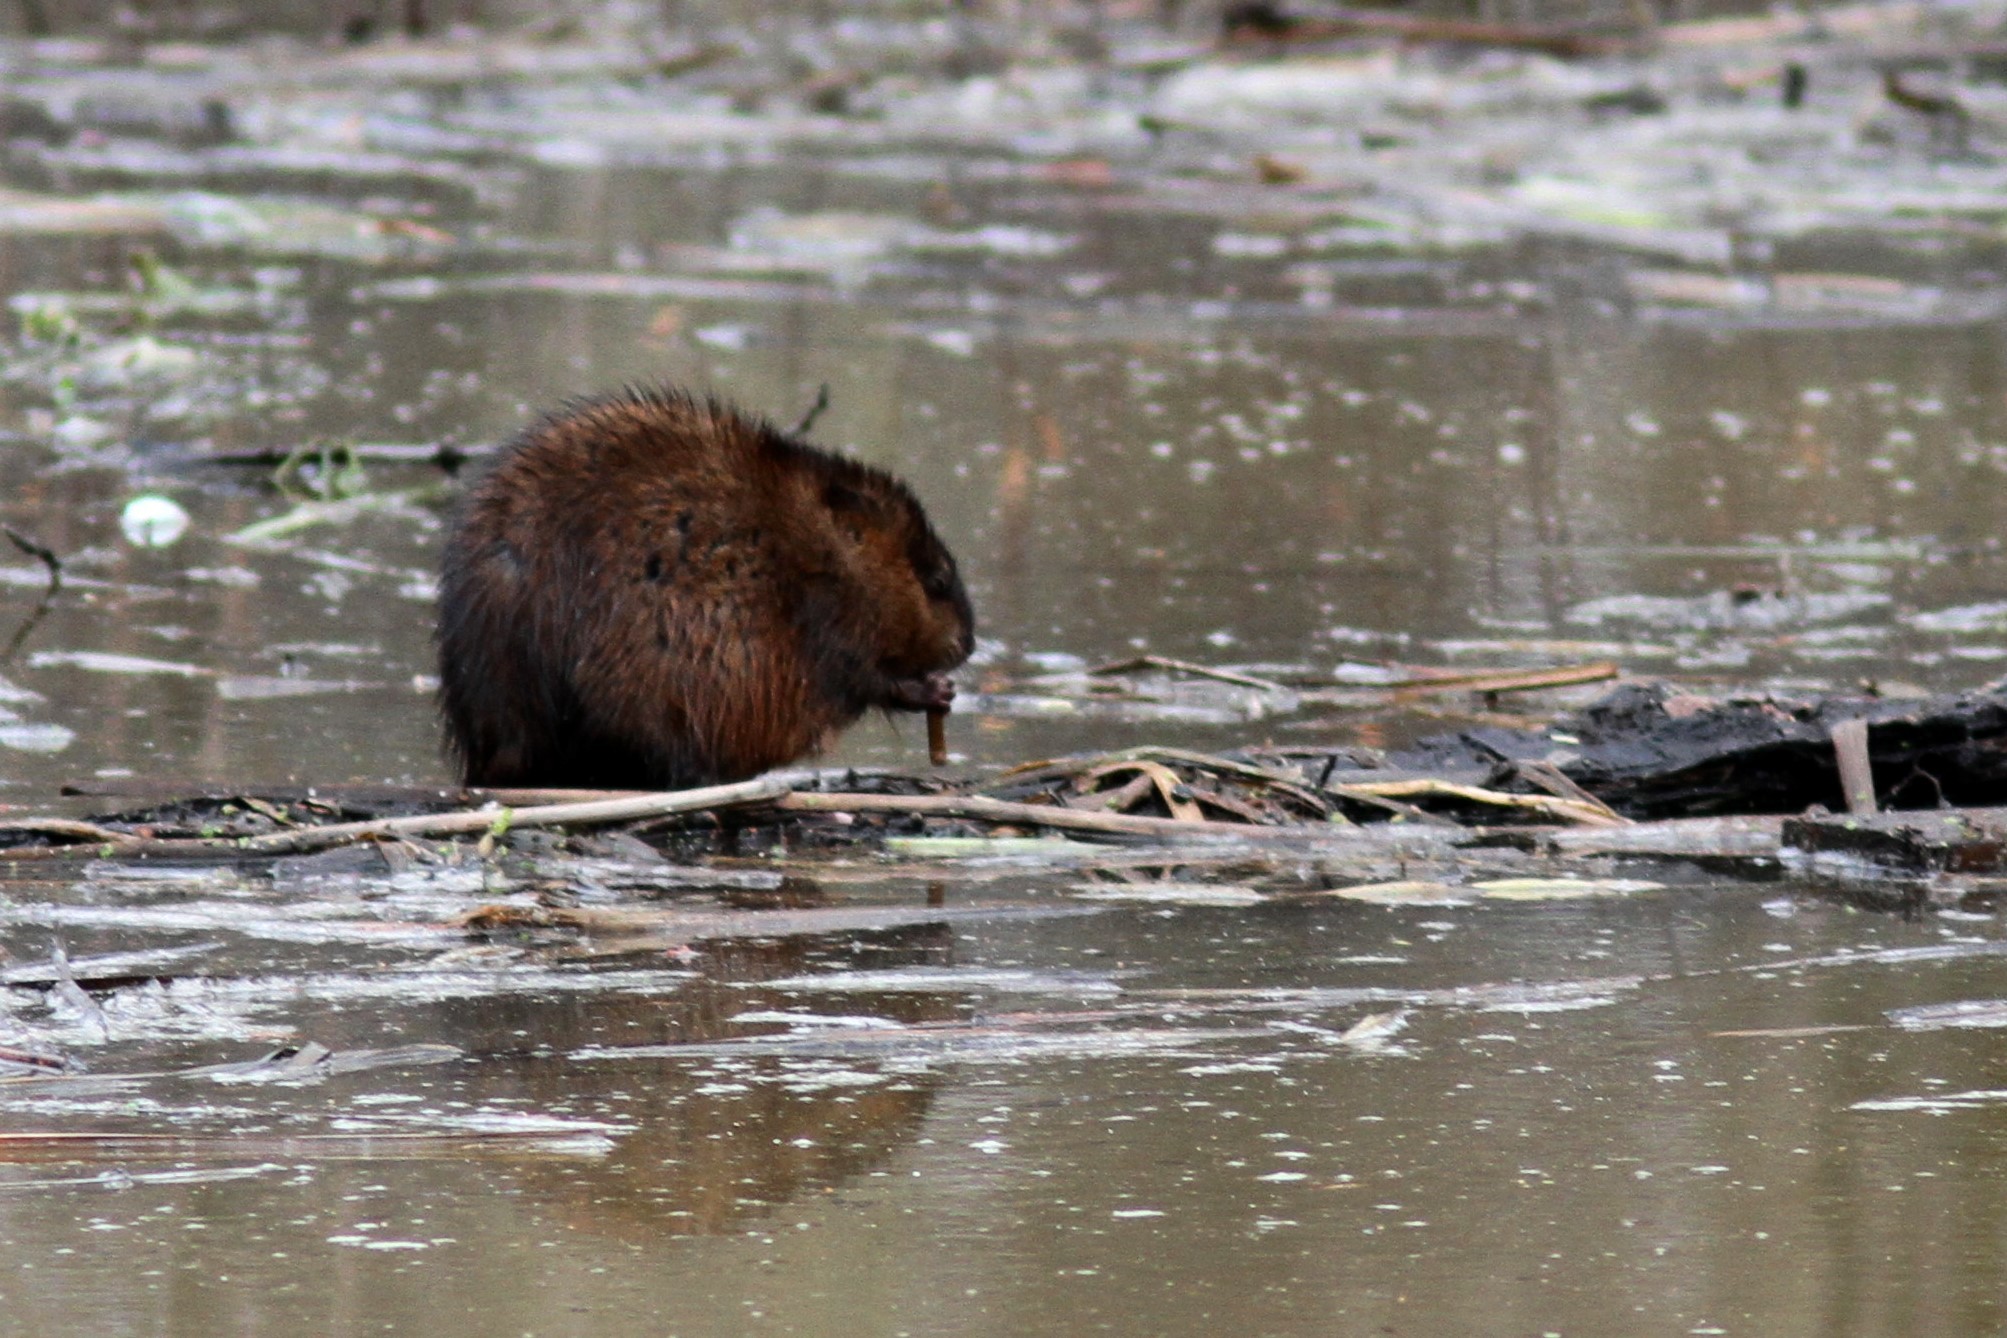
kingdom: Animalia
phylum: Chordata
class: Mammalia
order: Rodentia
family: Cricetidae
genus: Ondatra
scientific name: Ondatra zibethicus
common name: Muskrat
